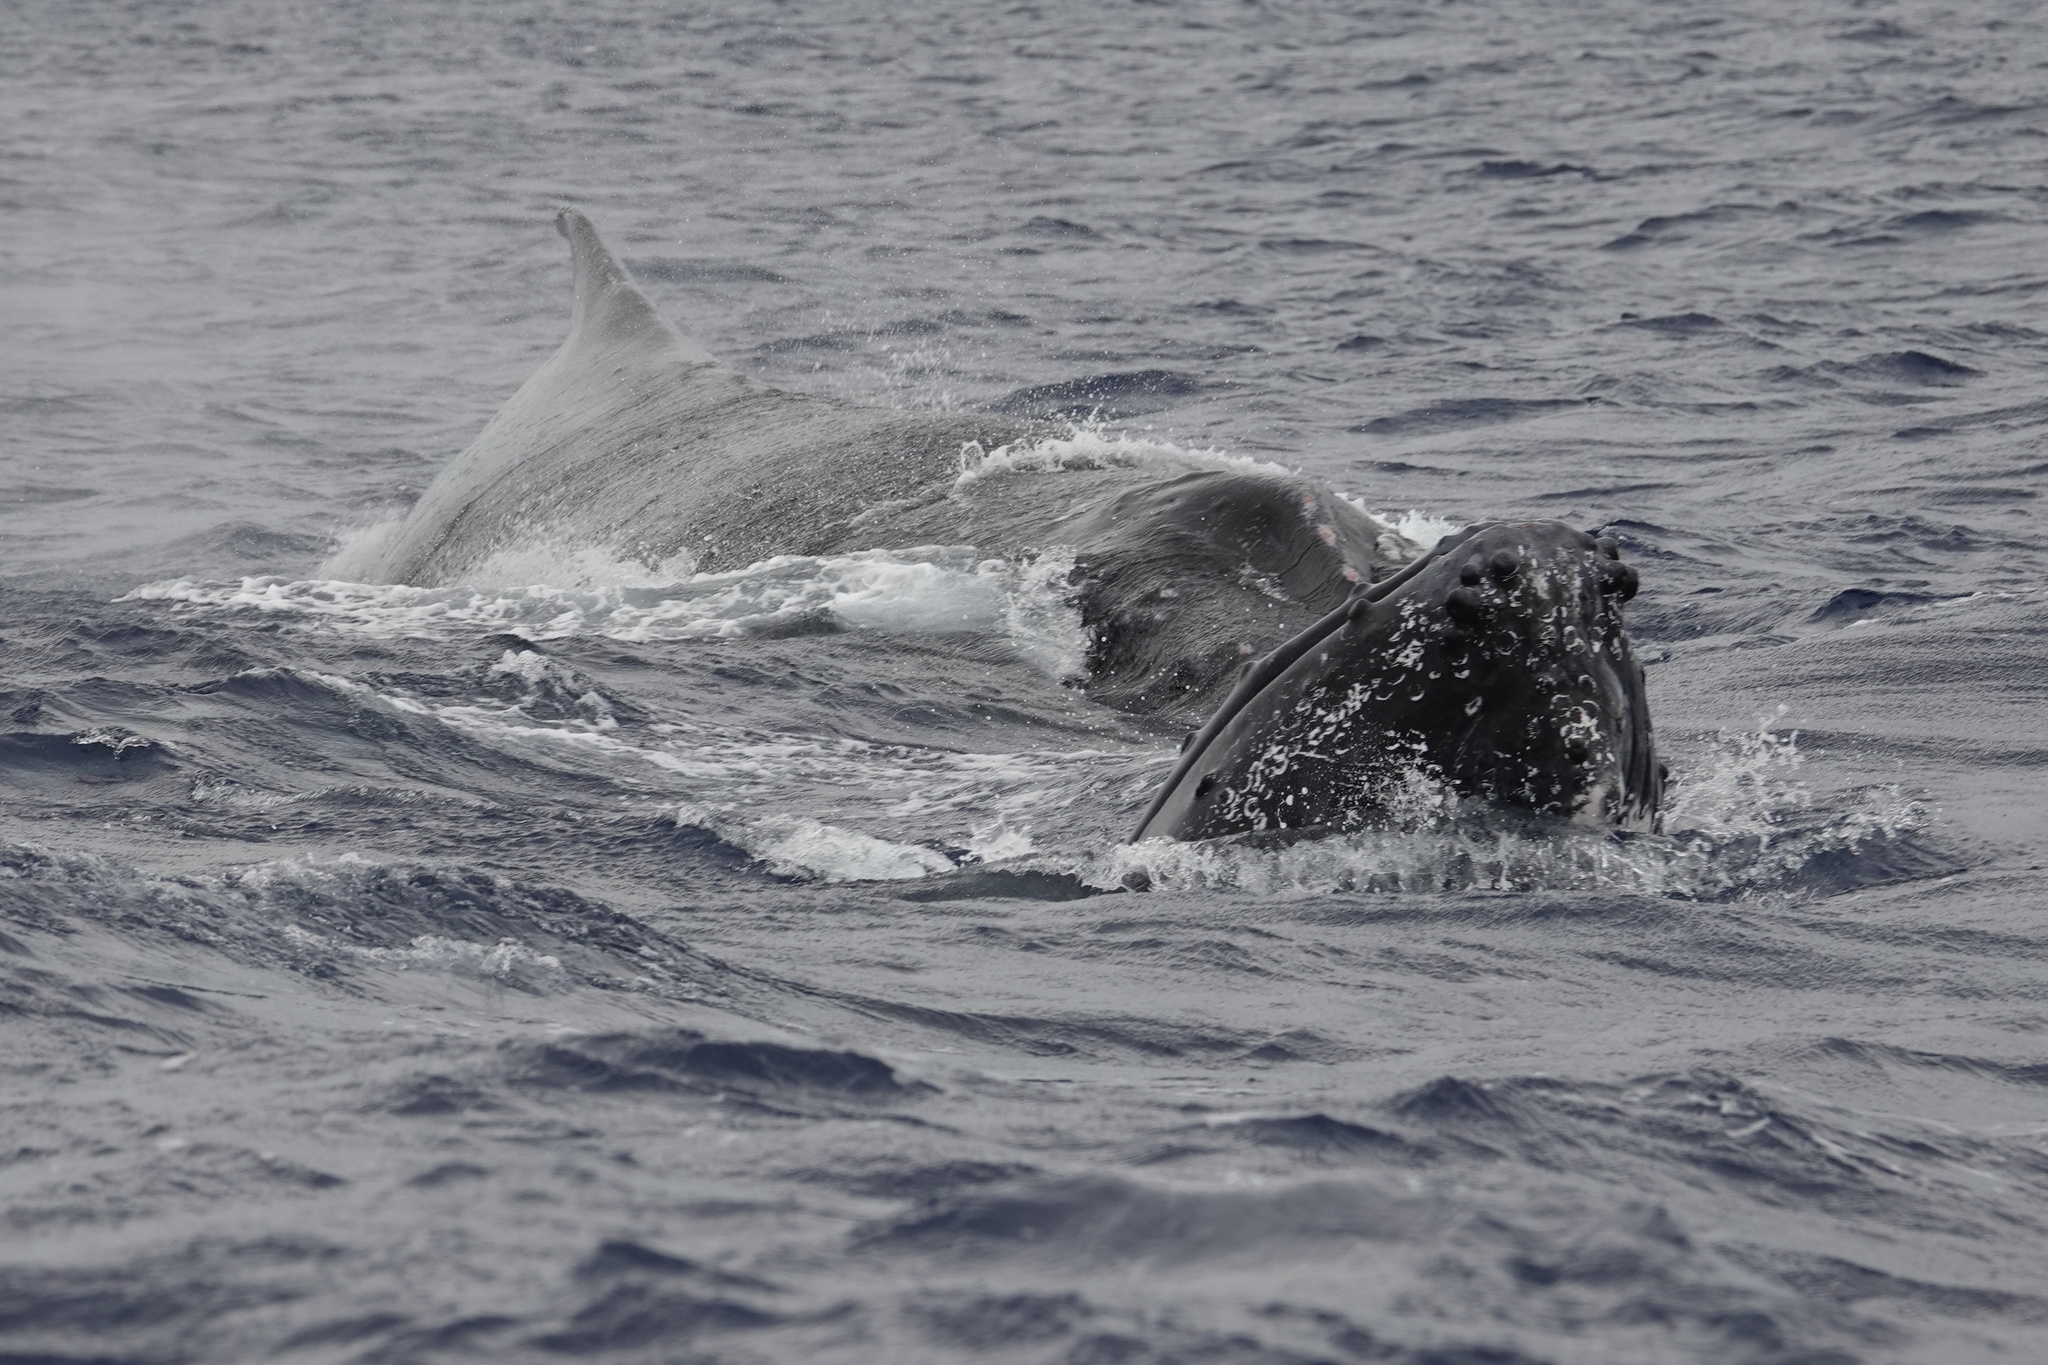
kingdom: Animalia
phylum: Chordata
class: Mammalia
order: Cetacea
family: Balaenopteridae
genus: Megaptera
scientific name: Megaptera novaeangliae
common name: Humpback whale
